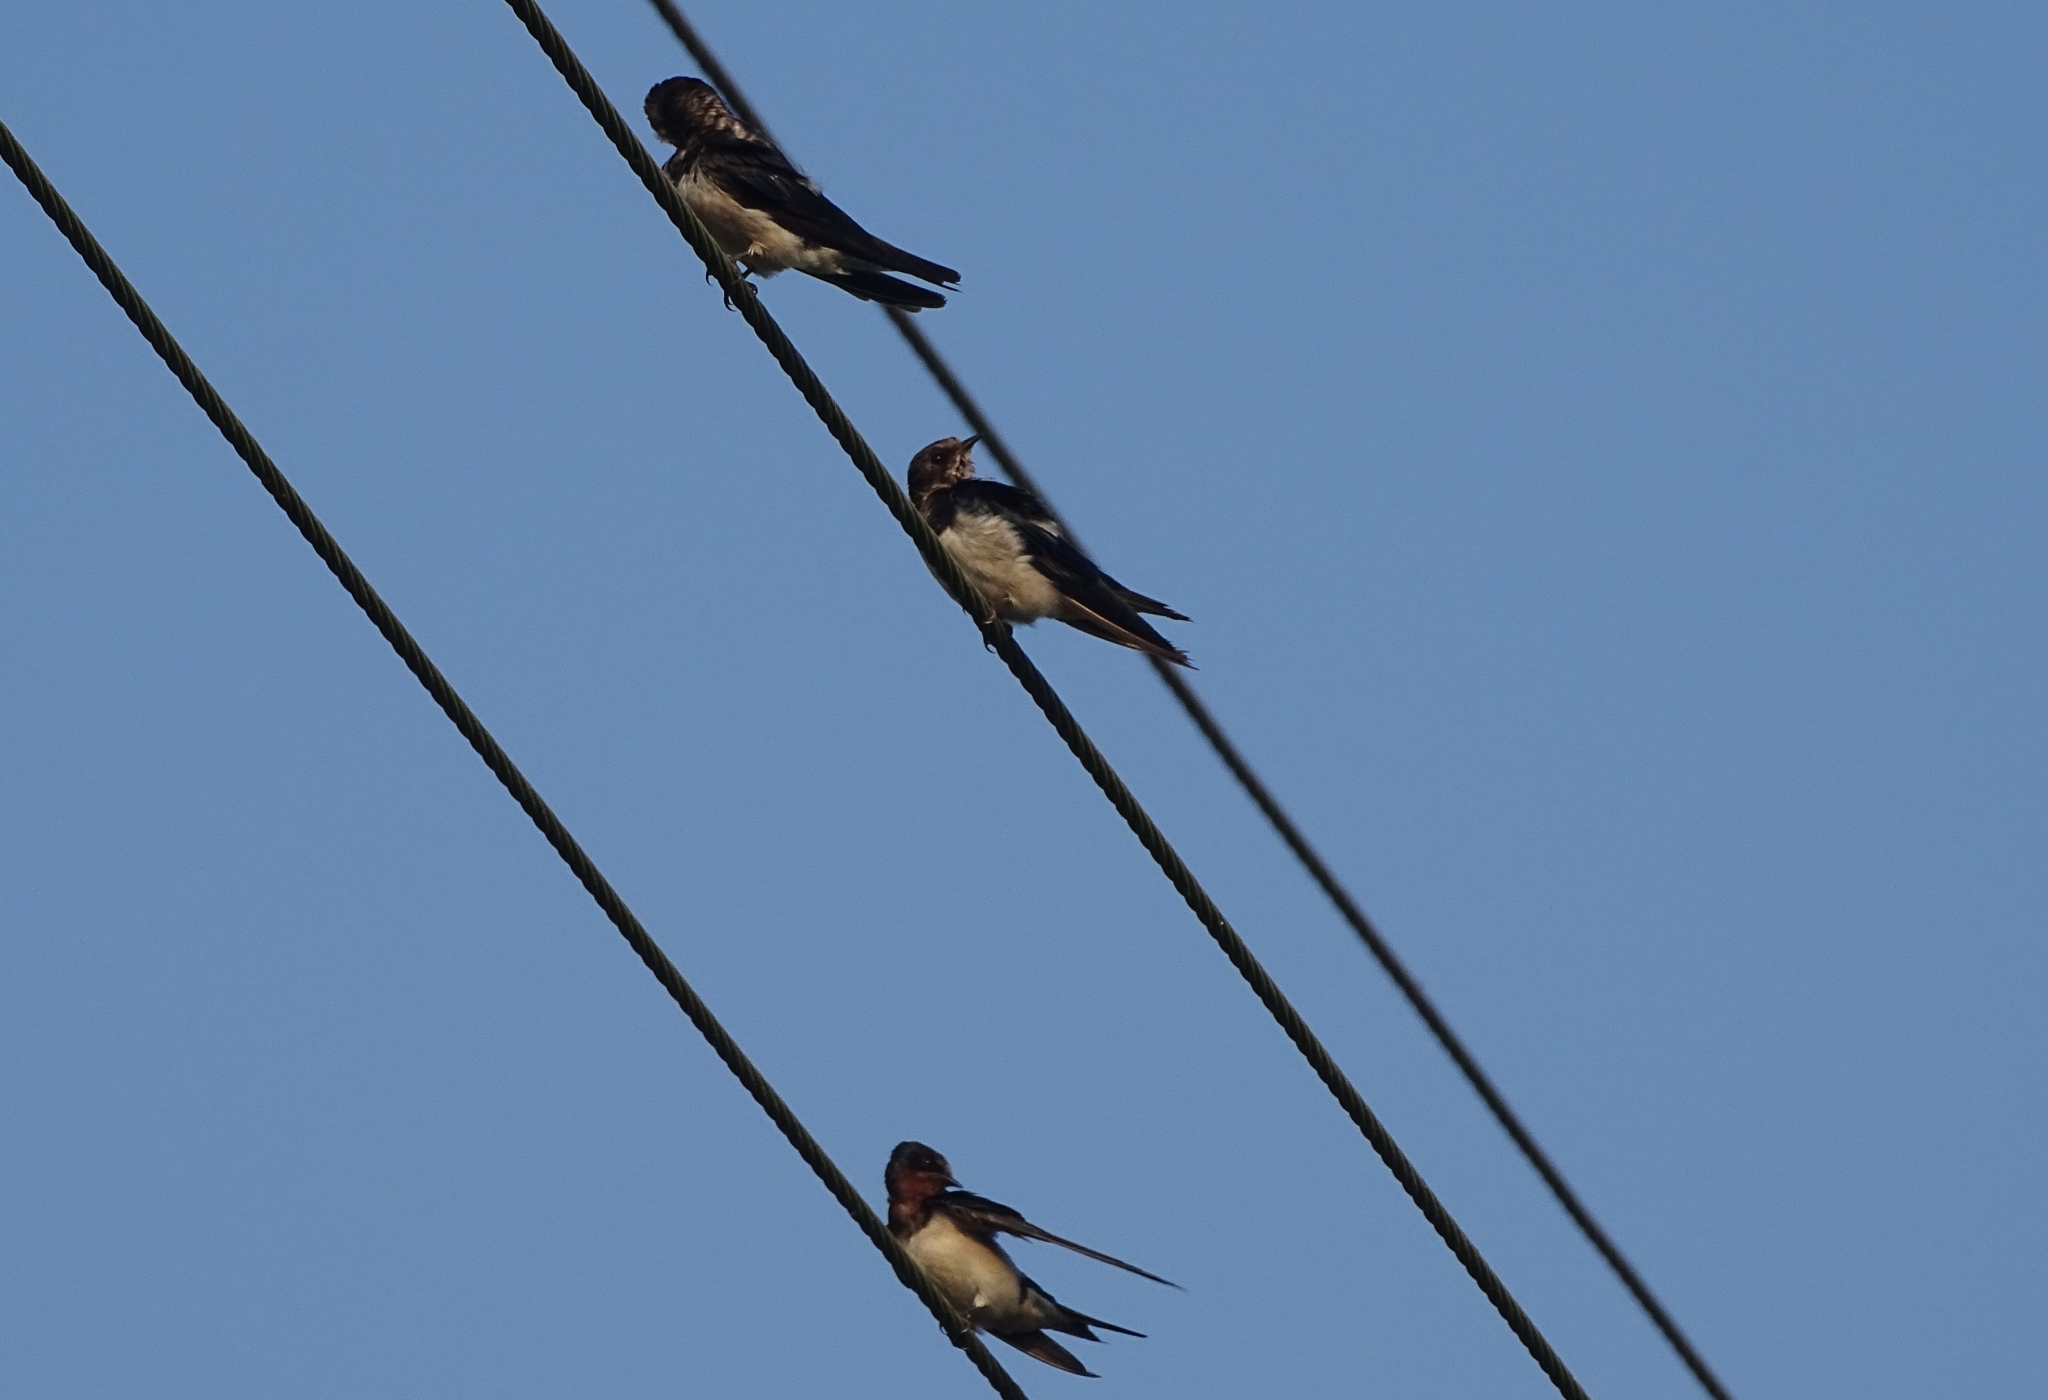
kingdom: Animalia
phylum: Chordata
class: Aves
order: Passeriformes
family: Hirundinidae
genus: Hirundo
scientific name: Hirundo rustica
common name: Barn swallow
